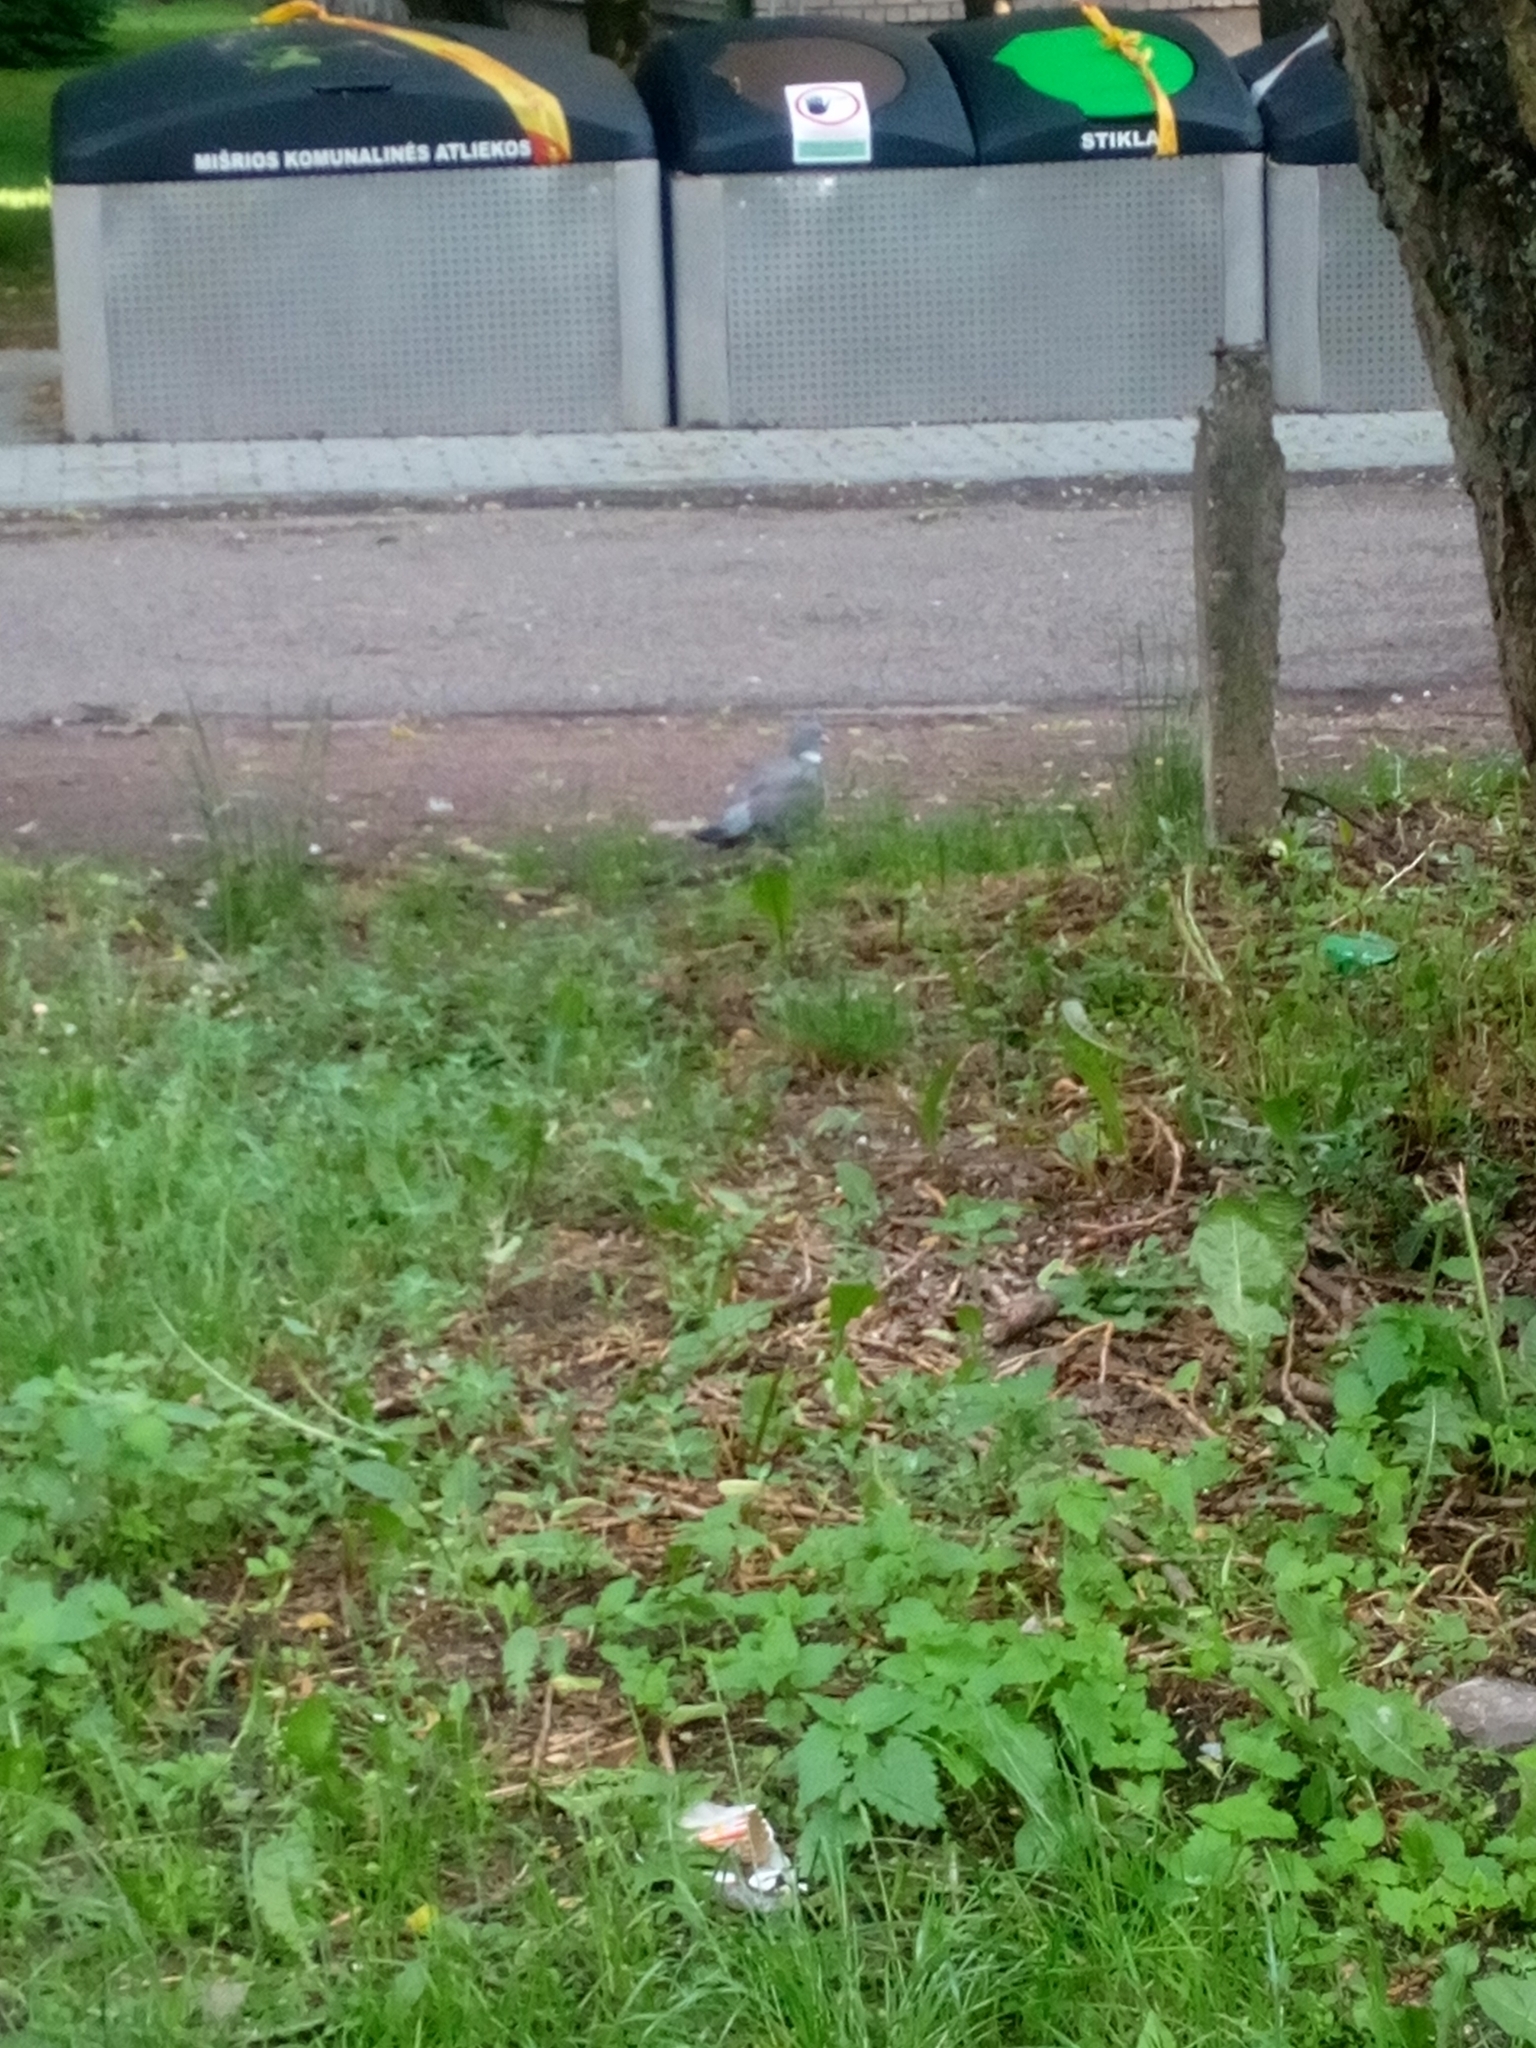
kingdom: Animalia
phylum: Chordata
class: Aves
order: Columbiformes
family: Columbidae
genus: Columba
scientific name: Columba palumbus
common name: Common wood pigeon
